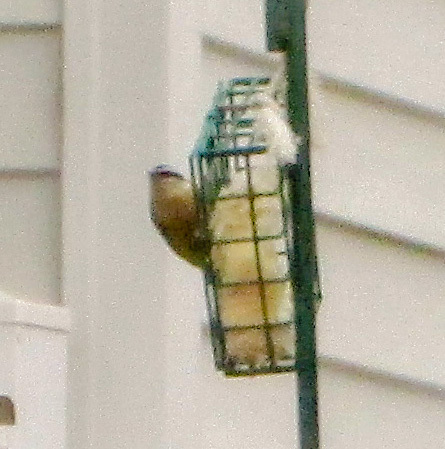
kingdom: Animalia
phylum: Chordata
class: Aves
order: Passeriformes
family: Sittidae
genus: Sitta
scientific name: Sitta canadensis
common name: Red-breasted nuthatch
